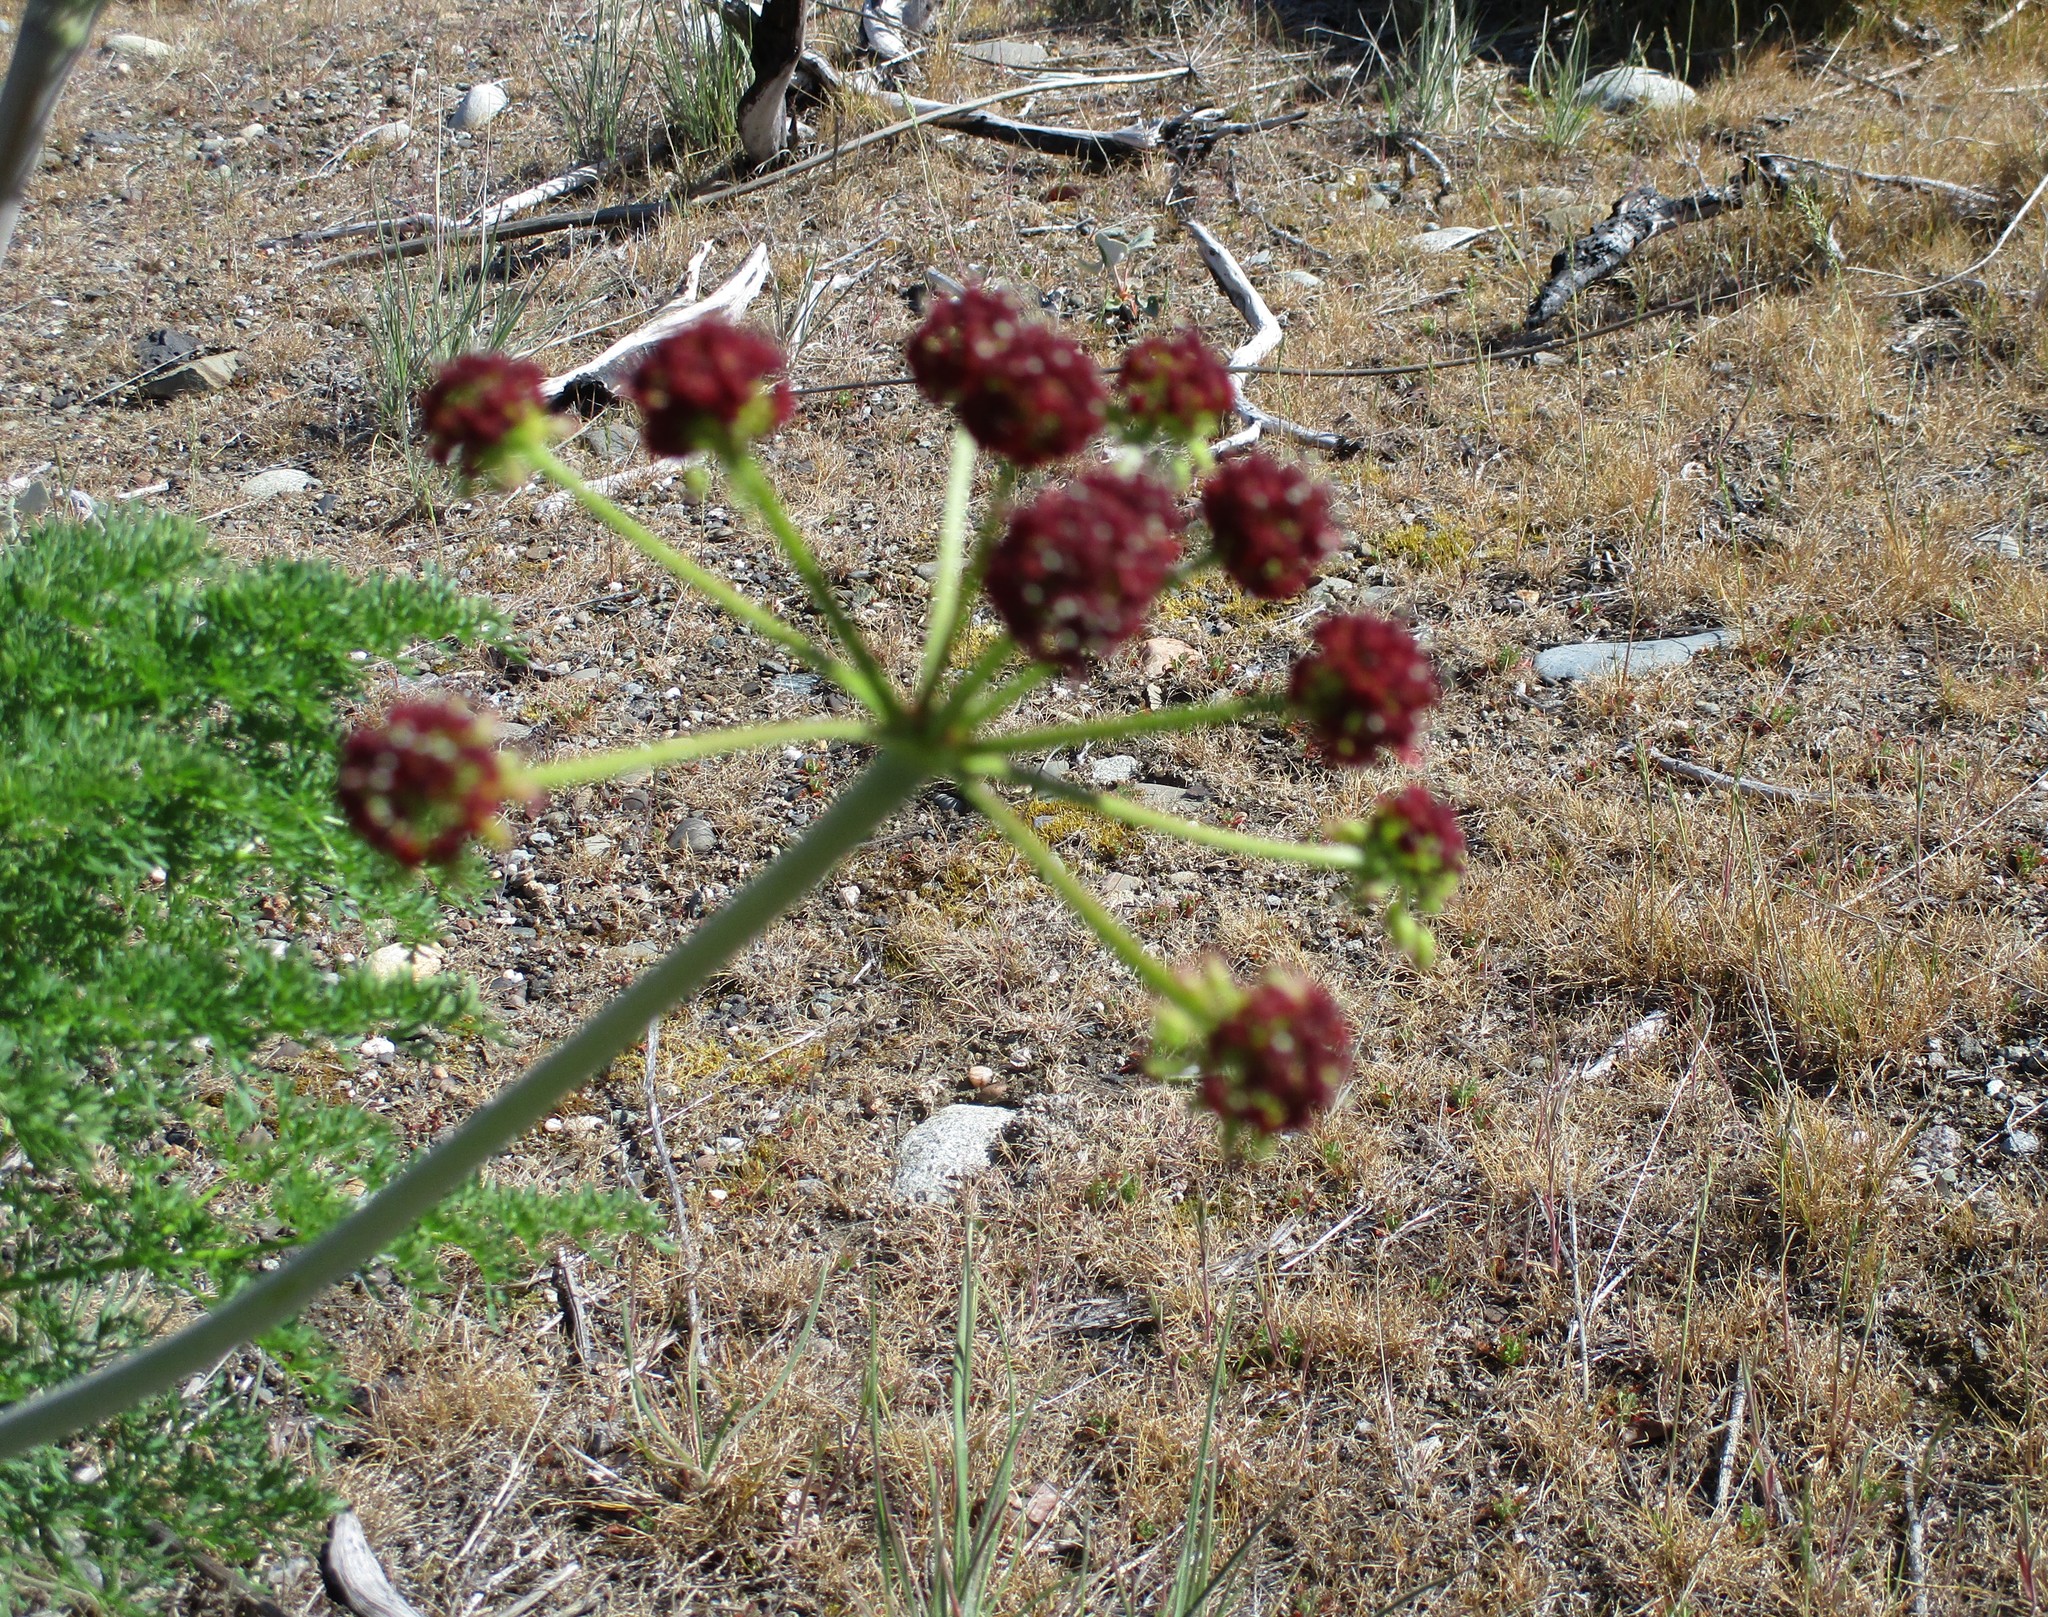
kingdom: Plantae
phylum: Tracheophyta
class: Magnoliopsida
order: Apiales
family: Apiaceae
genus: Lomatium
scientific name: Lomatium dissectum
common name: Lomatium
